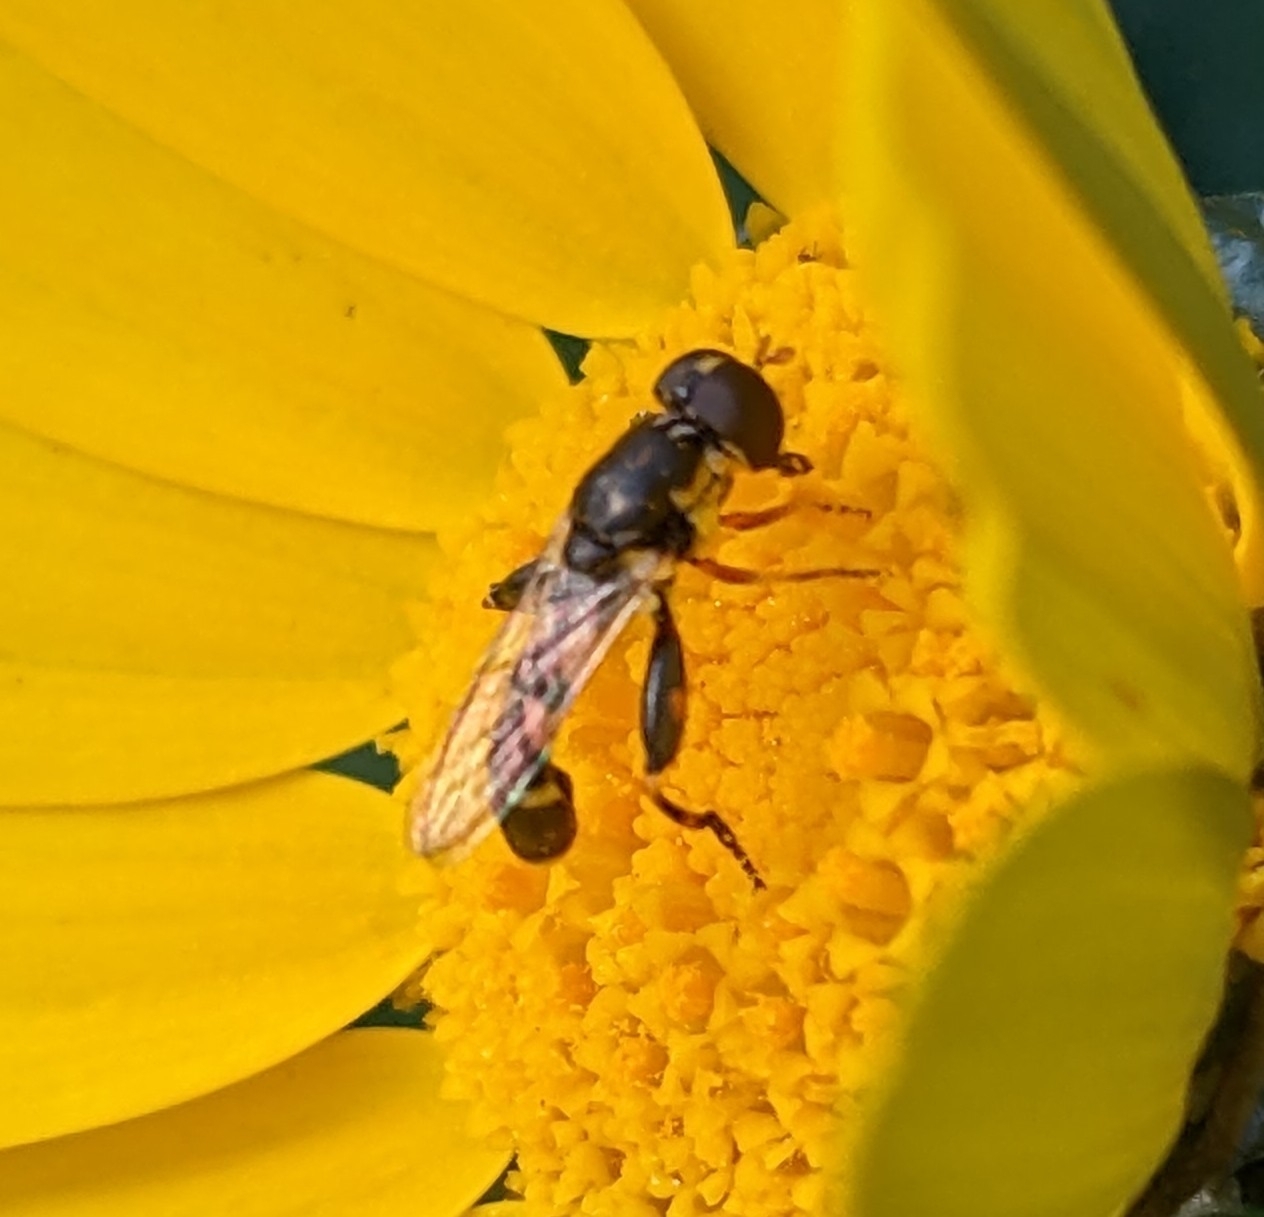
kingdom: Animalia
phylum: Arthropoda
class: Insecta
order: Diptera
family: Syrphidae
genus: Syritta
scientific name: Syritta pipiens
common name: Hover fly
